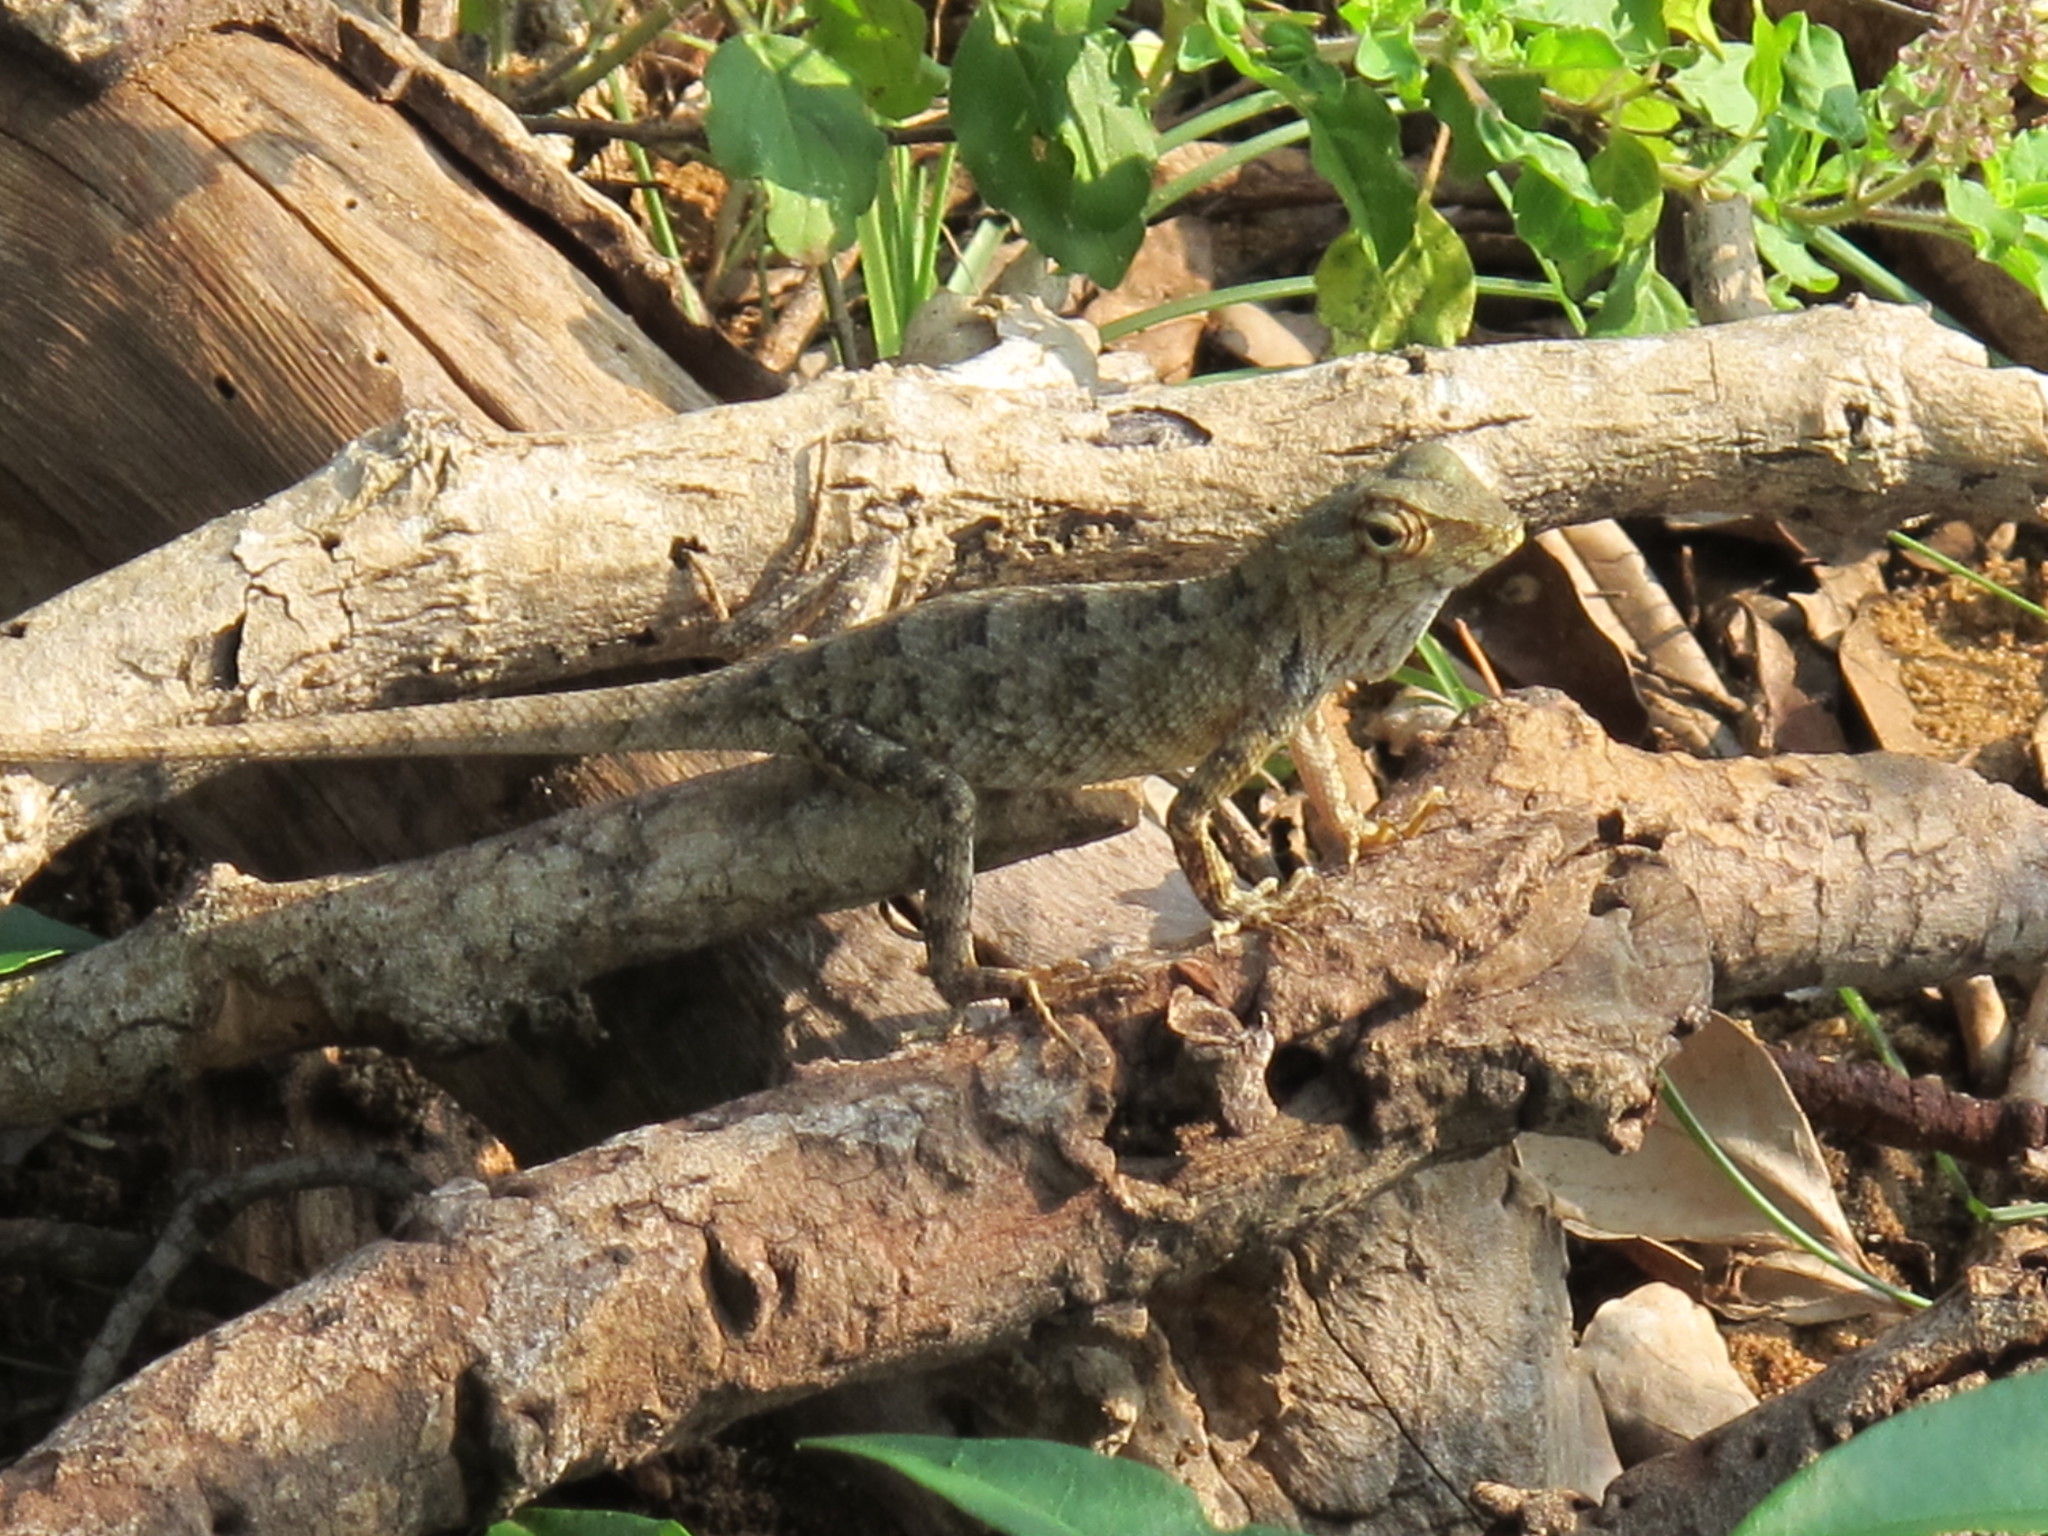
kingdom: Animalia
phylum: Chordata
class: Squamata
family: Agamidae
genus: Calotes
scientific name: Calotes versicolor
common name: Oriental garden lizard
